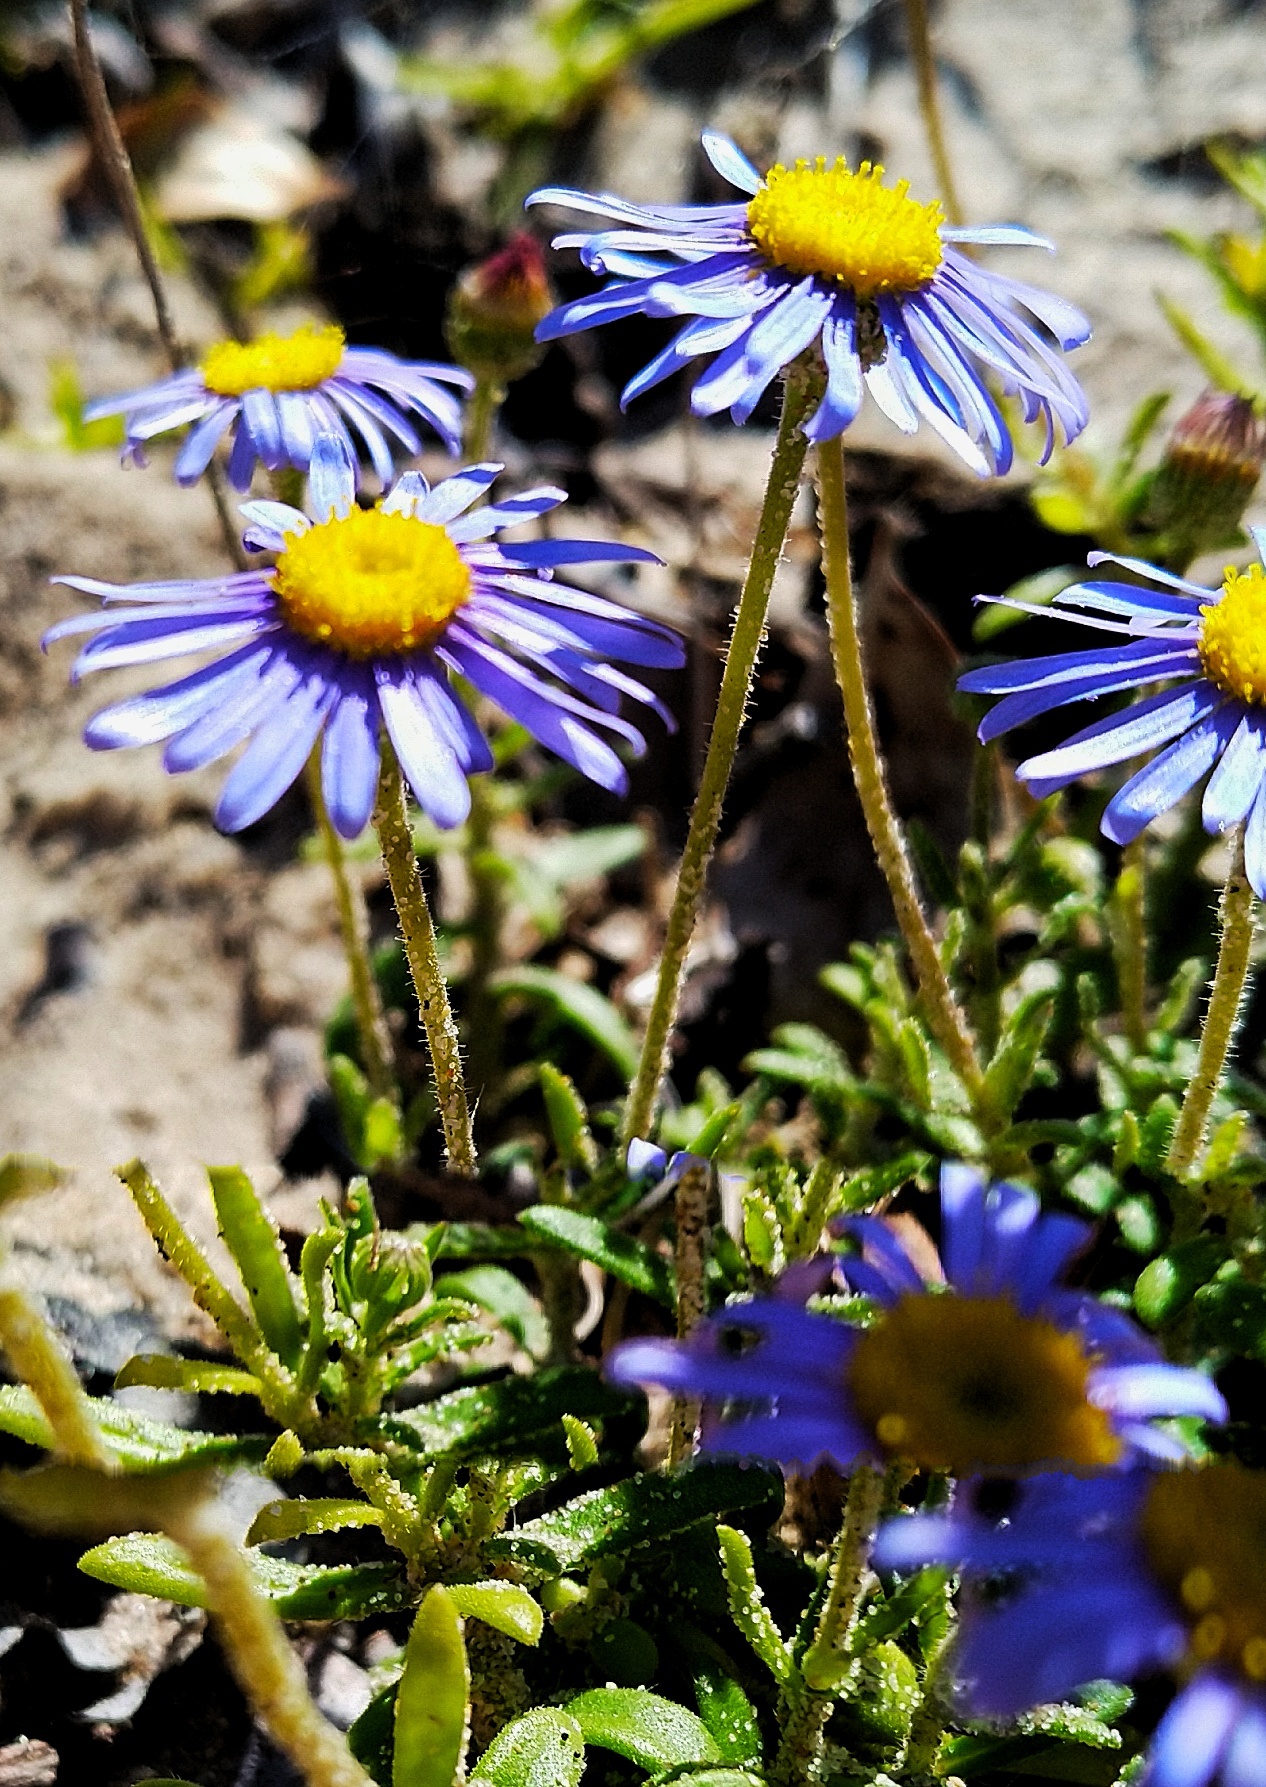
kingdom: Plantae
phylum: Tracheophyta
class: Magnoliopsida
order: Asterales
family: Asteraceae
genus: Felicia
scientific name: Felicia amoena
